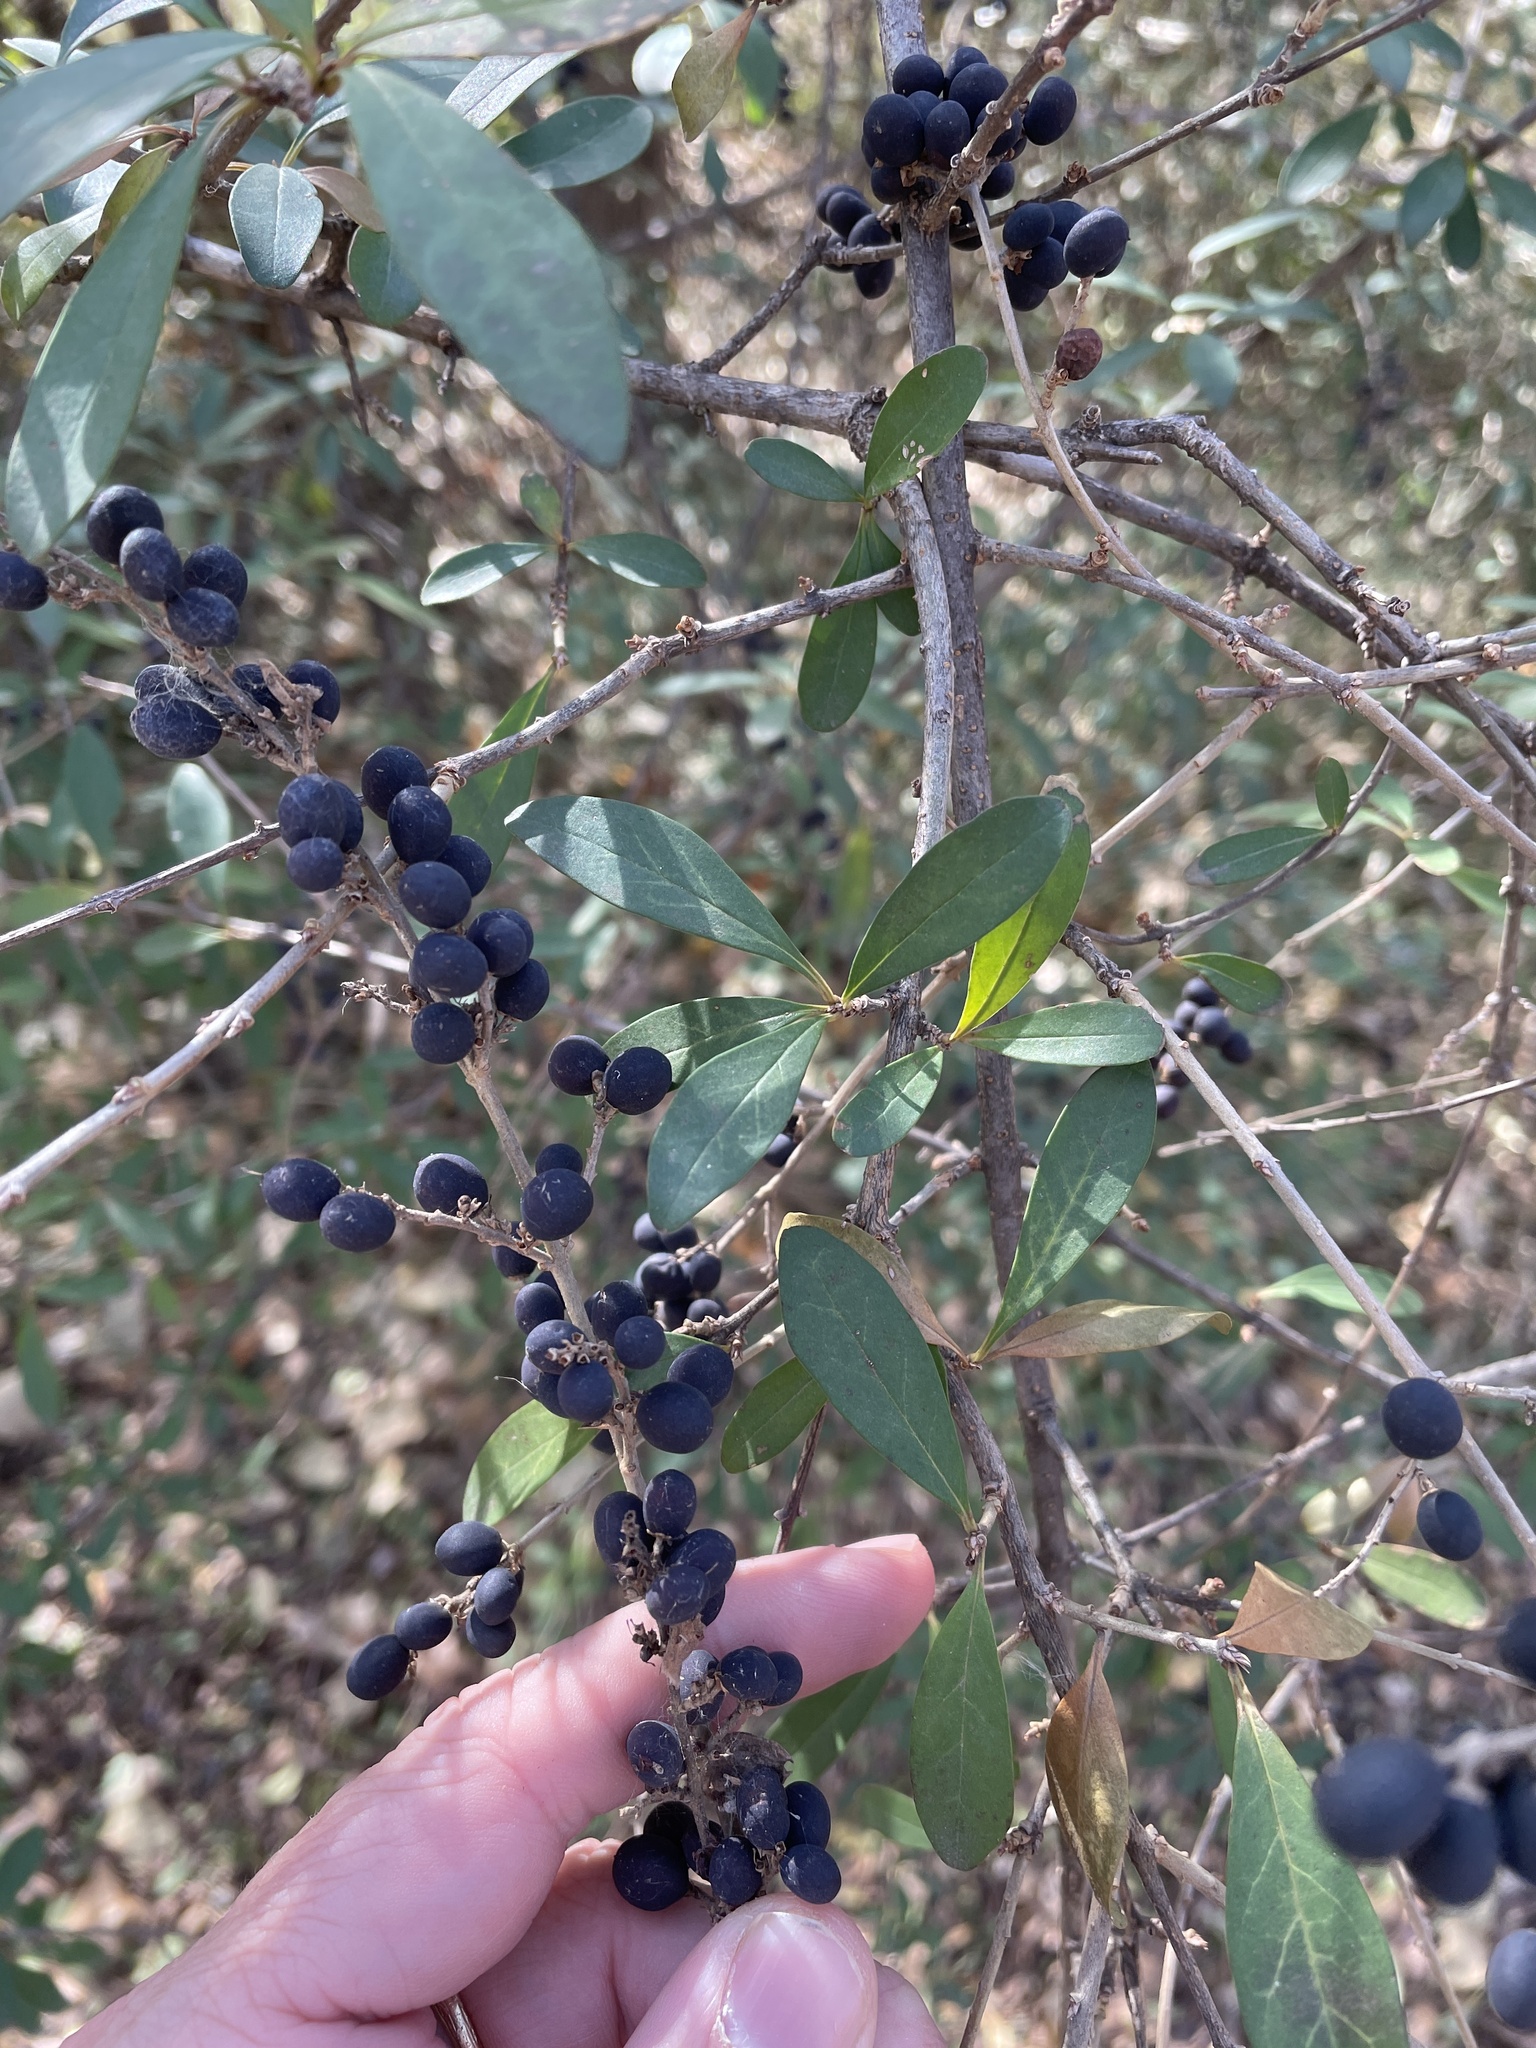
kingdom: Plantae
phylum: Tracheophyta
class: Magnoliopsida
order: Lamiales
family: Oleaceae
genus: Ligustrum
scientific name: Ligustrum quihoui
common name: Waxyleaf privet
